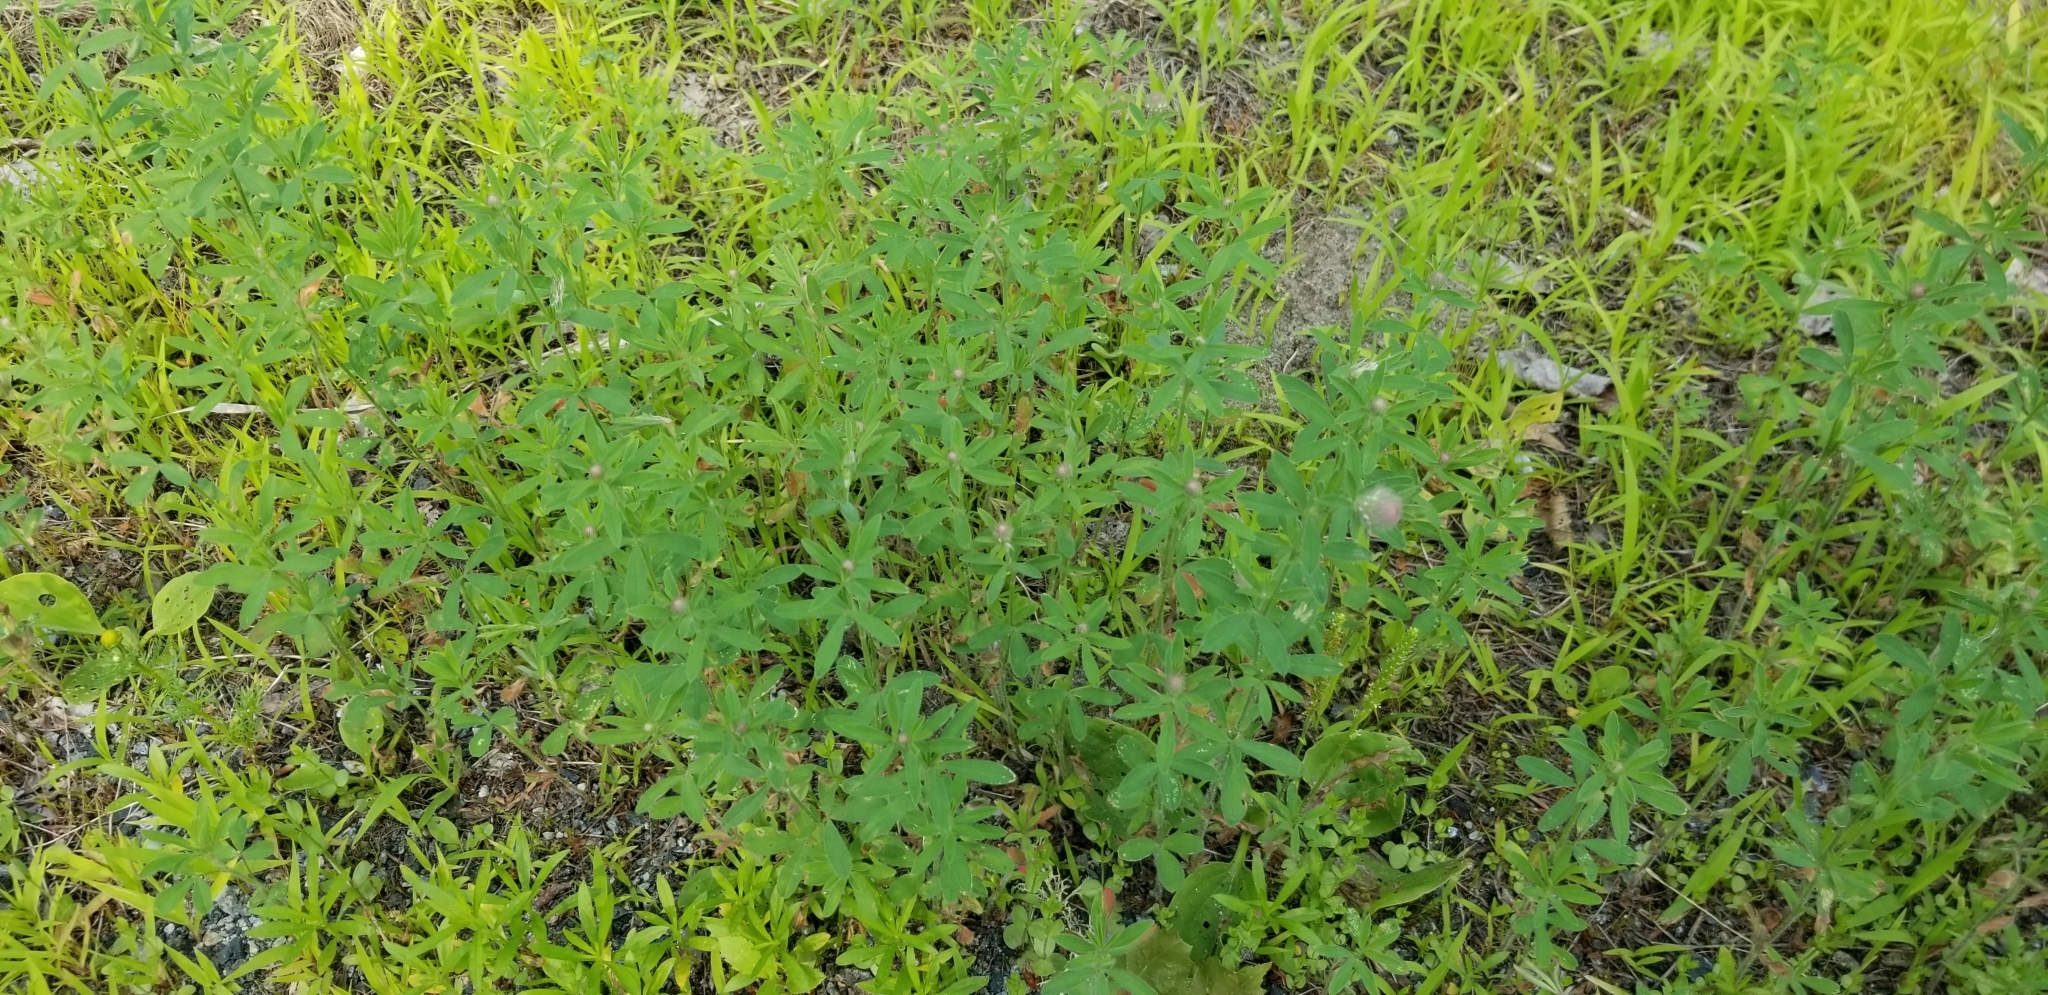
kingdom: Plantae
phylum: Tracheophyta
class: Magnoliopsida
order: Fabales
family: Fabaceae
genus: Trifolium
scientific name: Trifolium arvense
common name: Hare's-foot clover
